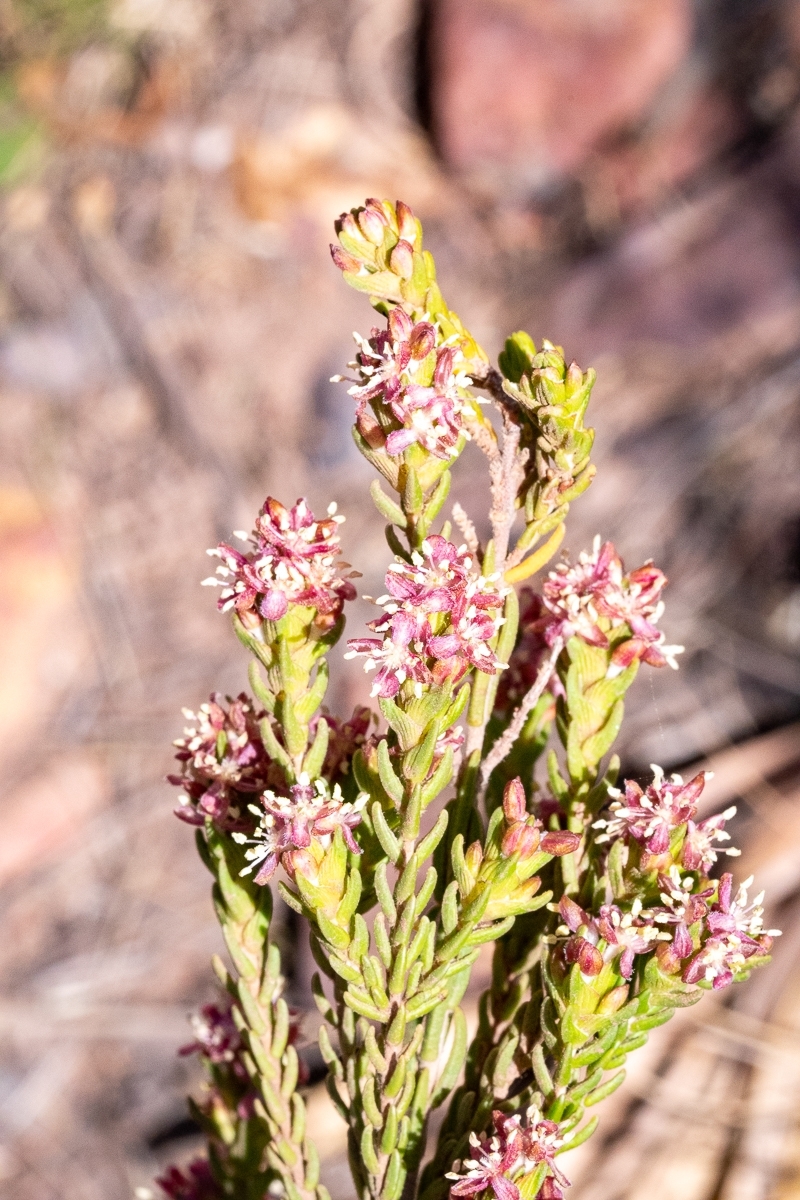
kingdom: Plantae
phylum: Tracheophyta
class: Magnoliopsida
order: Malvales
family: Thymelaeaceae
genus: Passerina
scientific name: Passerina corymbosa
